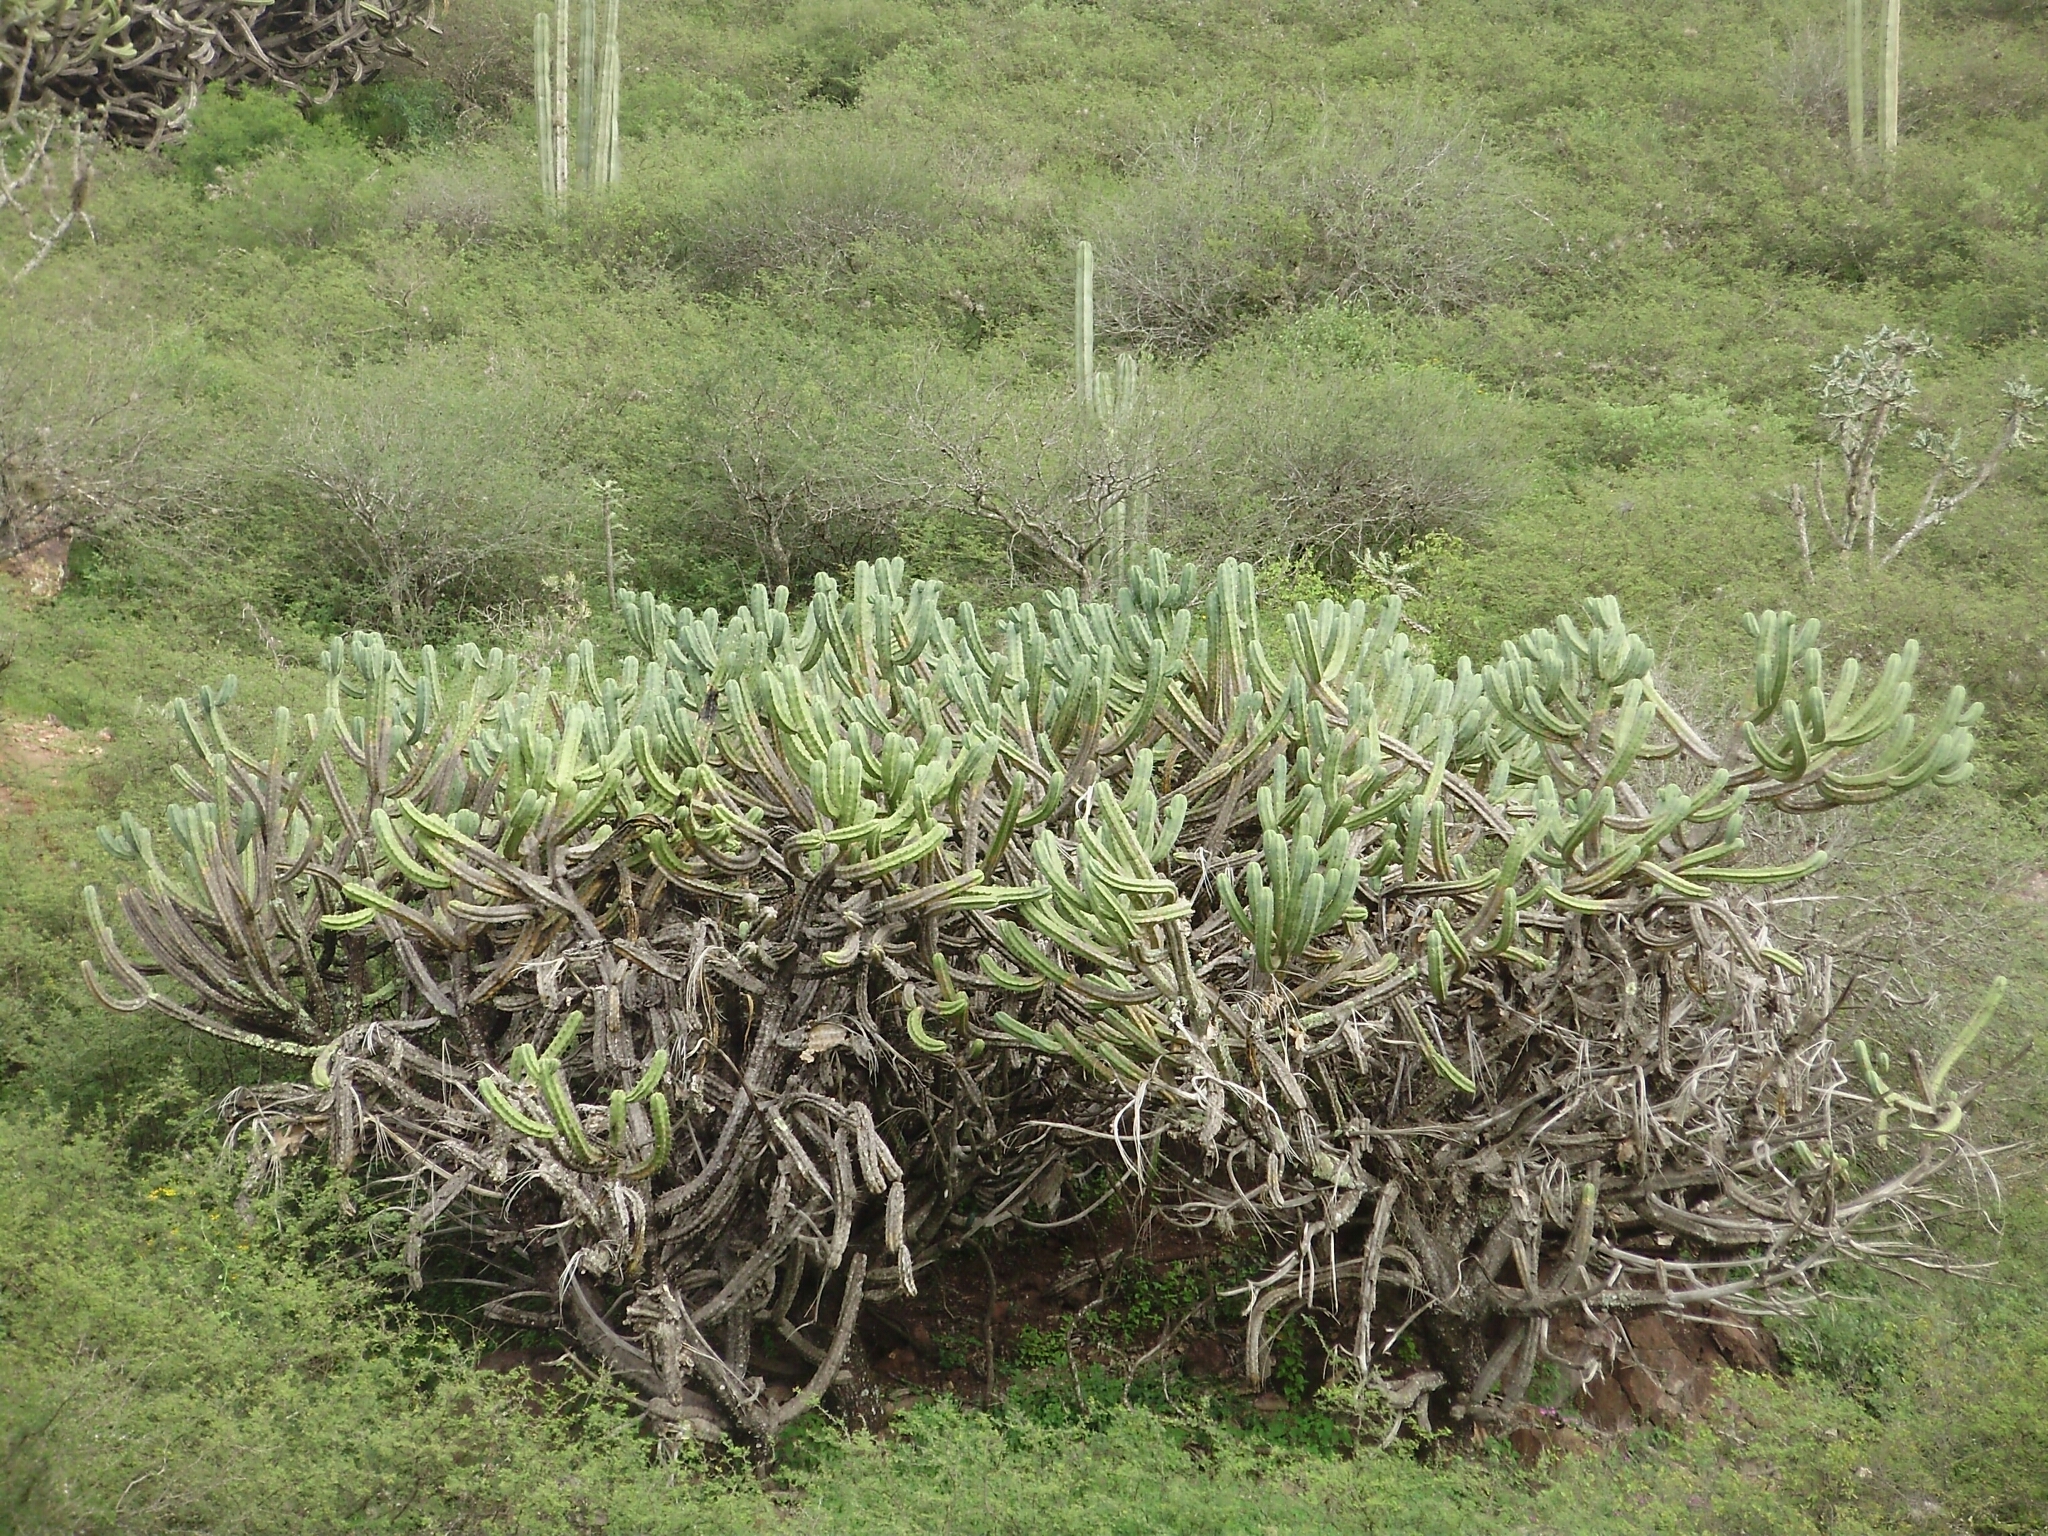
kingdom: Plantae
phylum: Tracheophyta
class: Magnoliopsida
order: Caryophyllales
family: Cactaceae
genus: Myrtillocactus
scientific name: Myrtillocactus geometrizans
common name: Bilberry cactus
